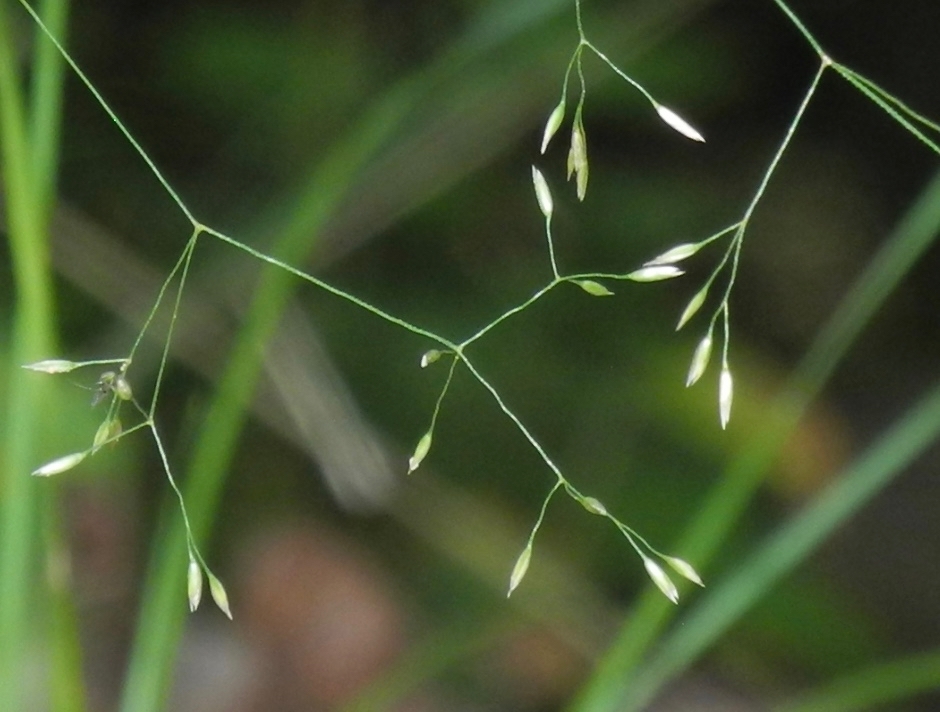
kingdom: Plantae
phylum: Tracheophyta
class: Liliopsida
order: Poales
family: Poaceae
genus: Agrostis
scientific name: Agrostis perennans
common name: Autumn bent
